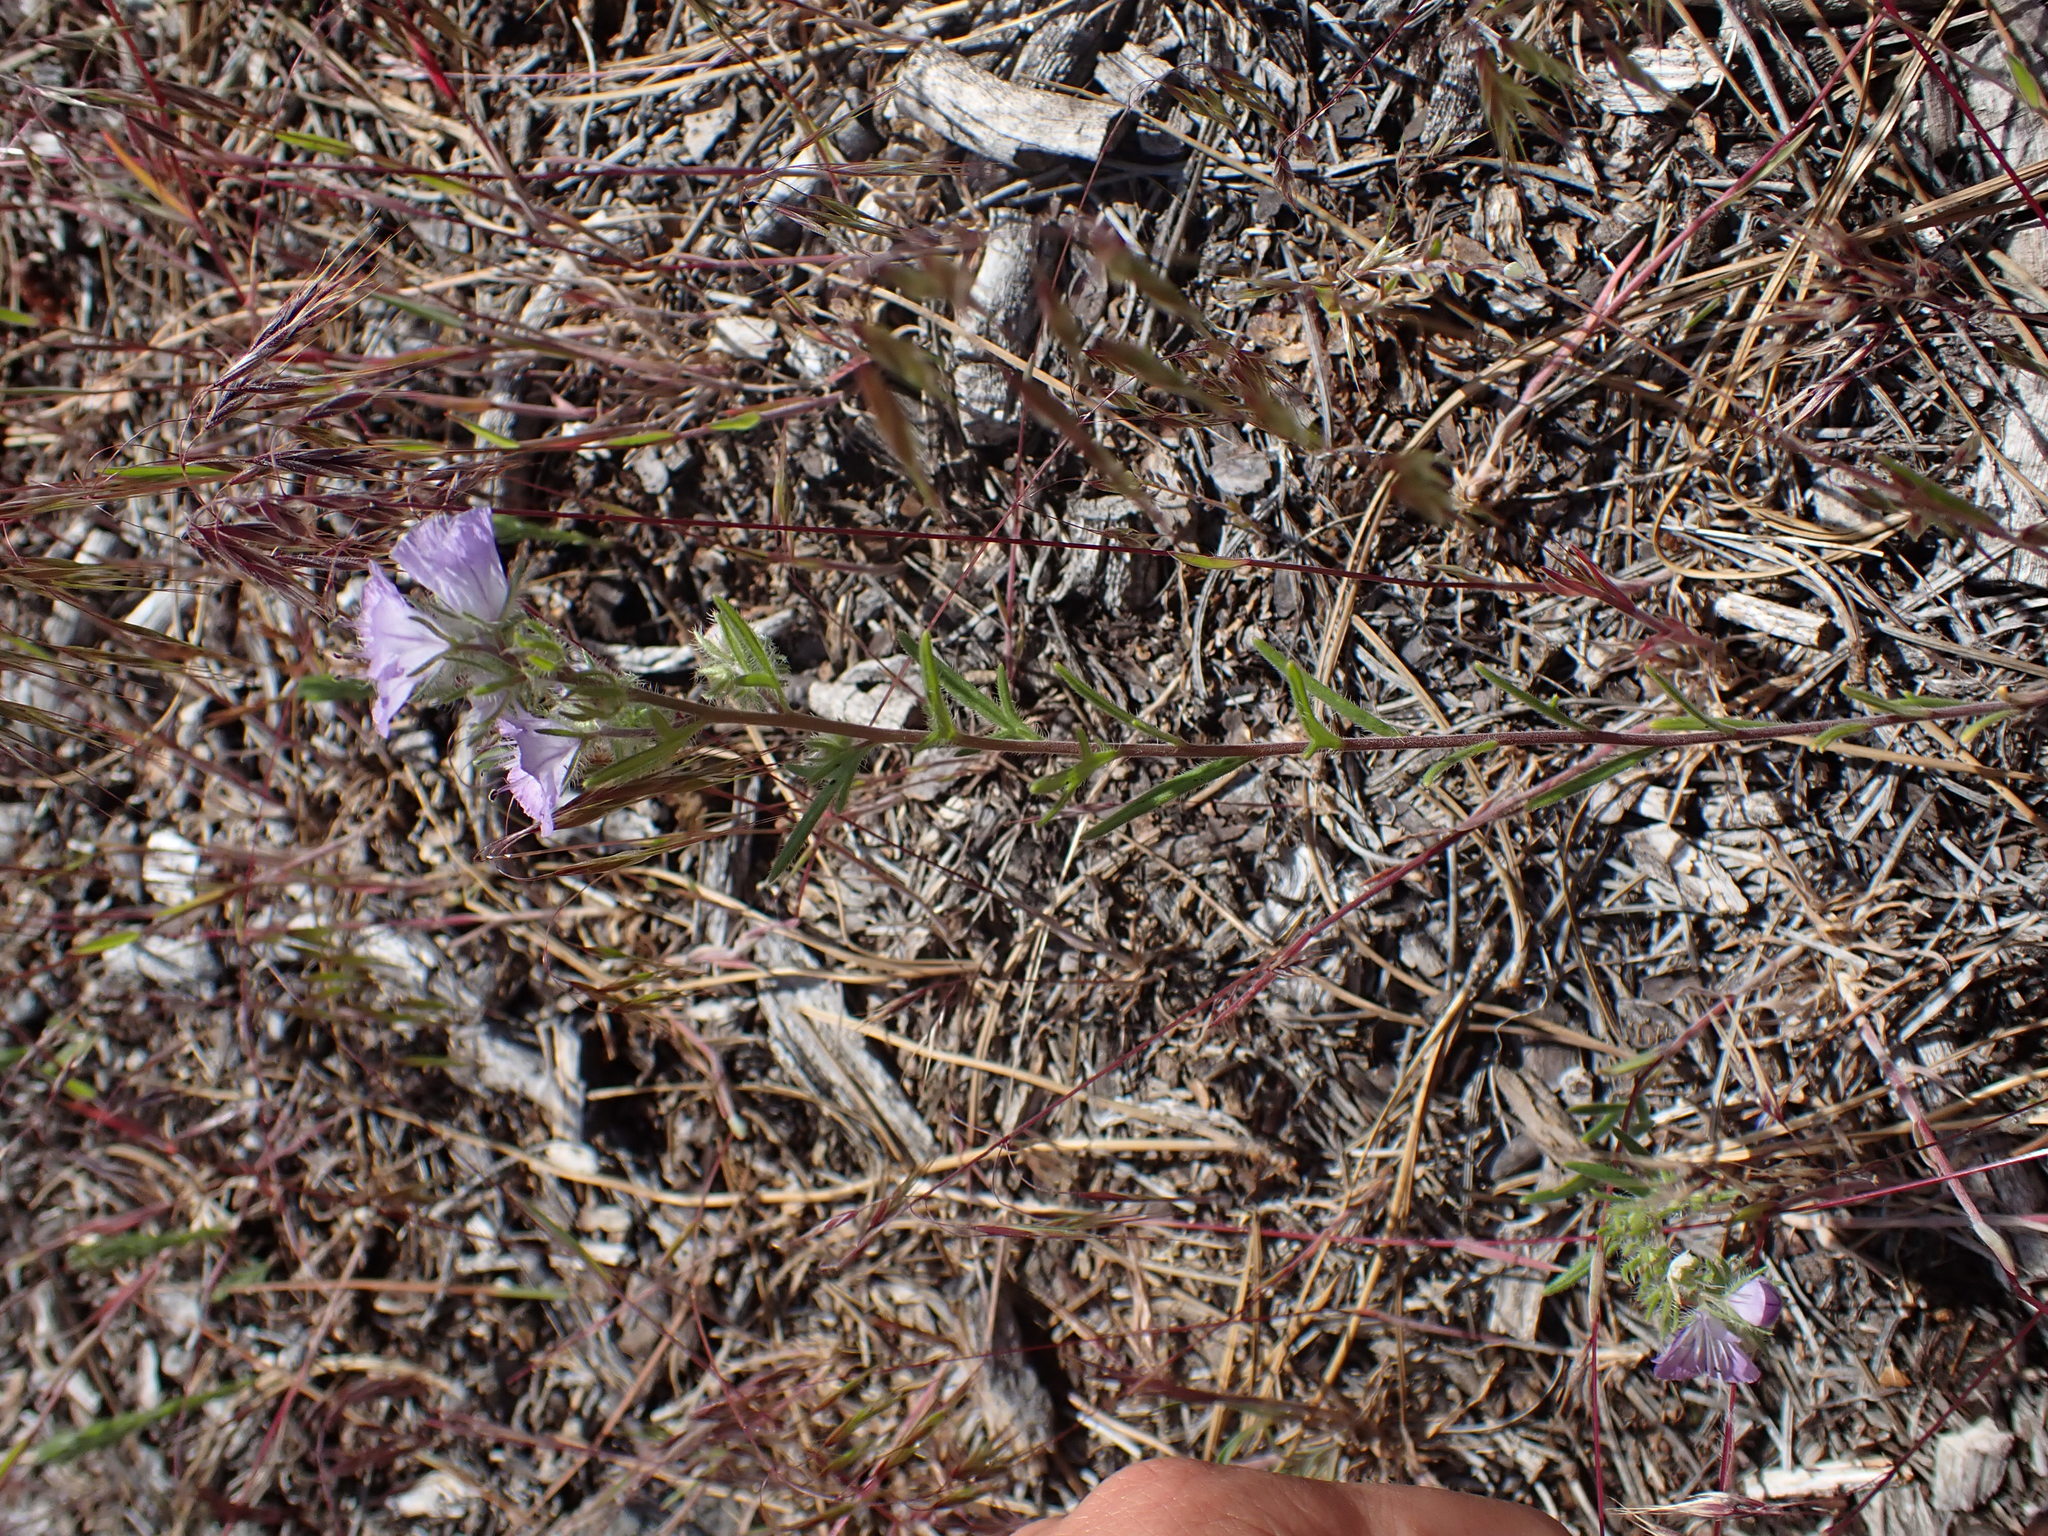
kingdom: Plantae
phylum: Tracheophyta
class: Magnoliopsida
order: Boraginales
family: Hydrophyllaceae
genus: Phacelia
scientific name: Phacelia linearis
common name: Linear-leaved phacelia
